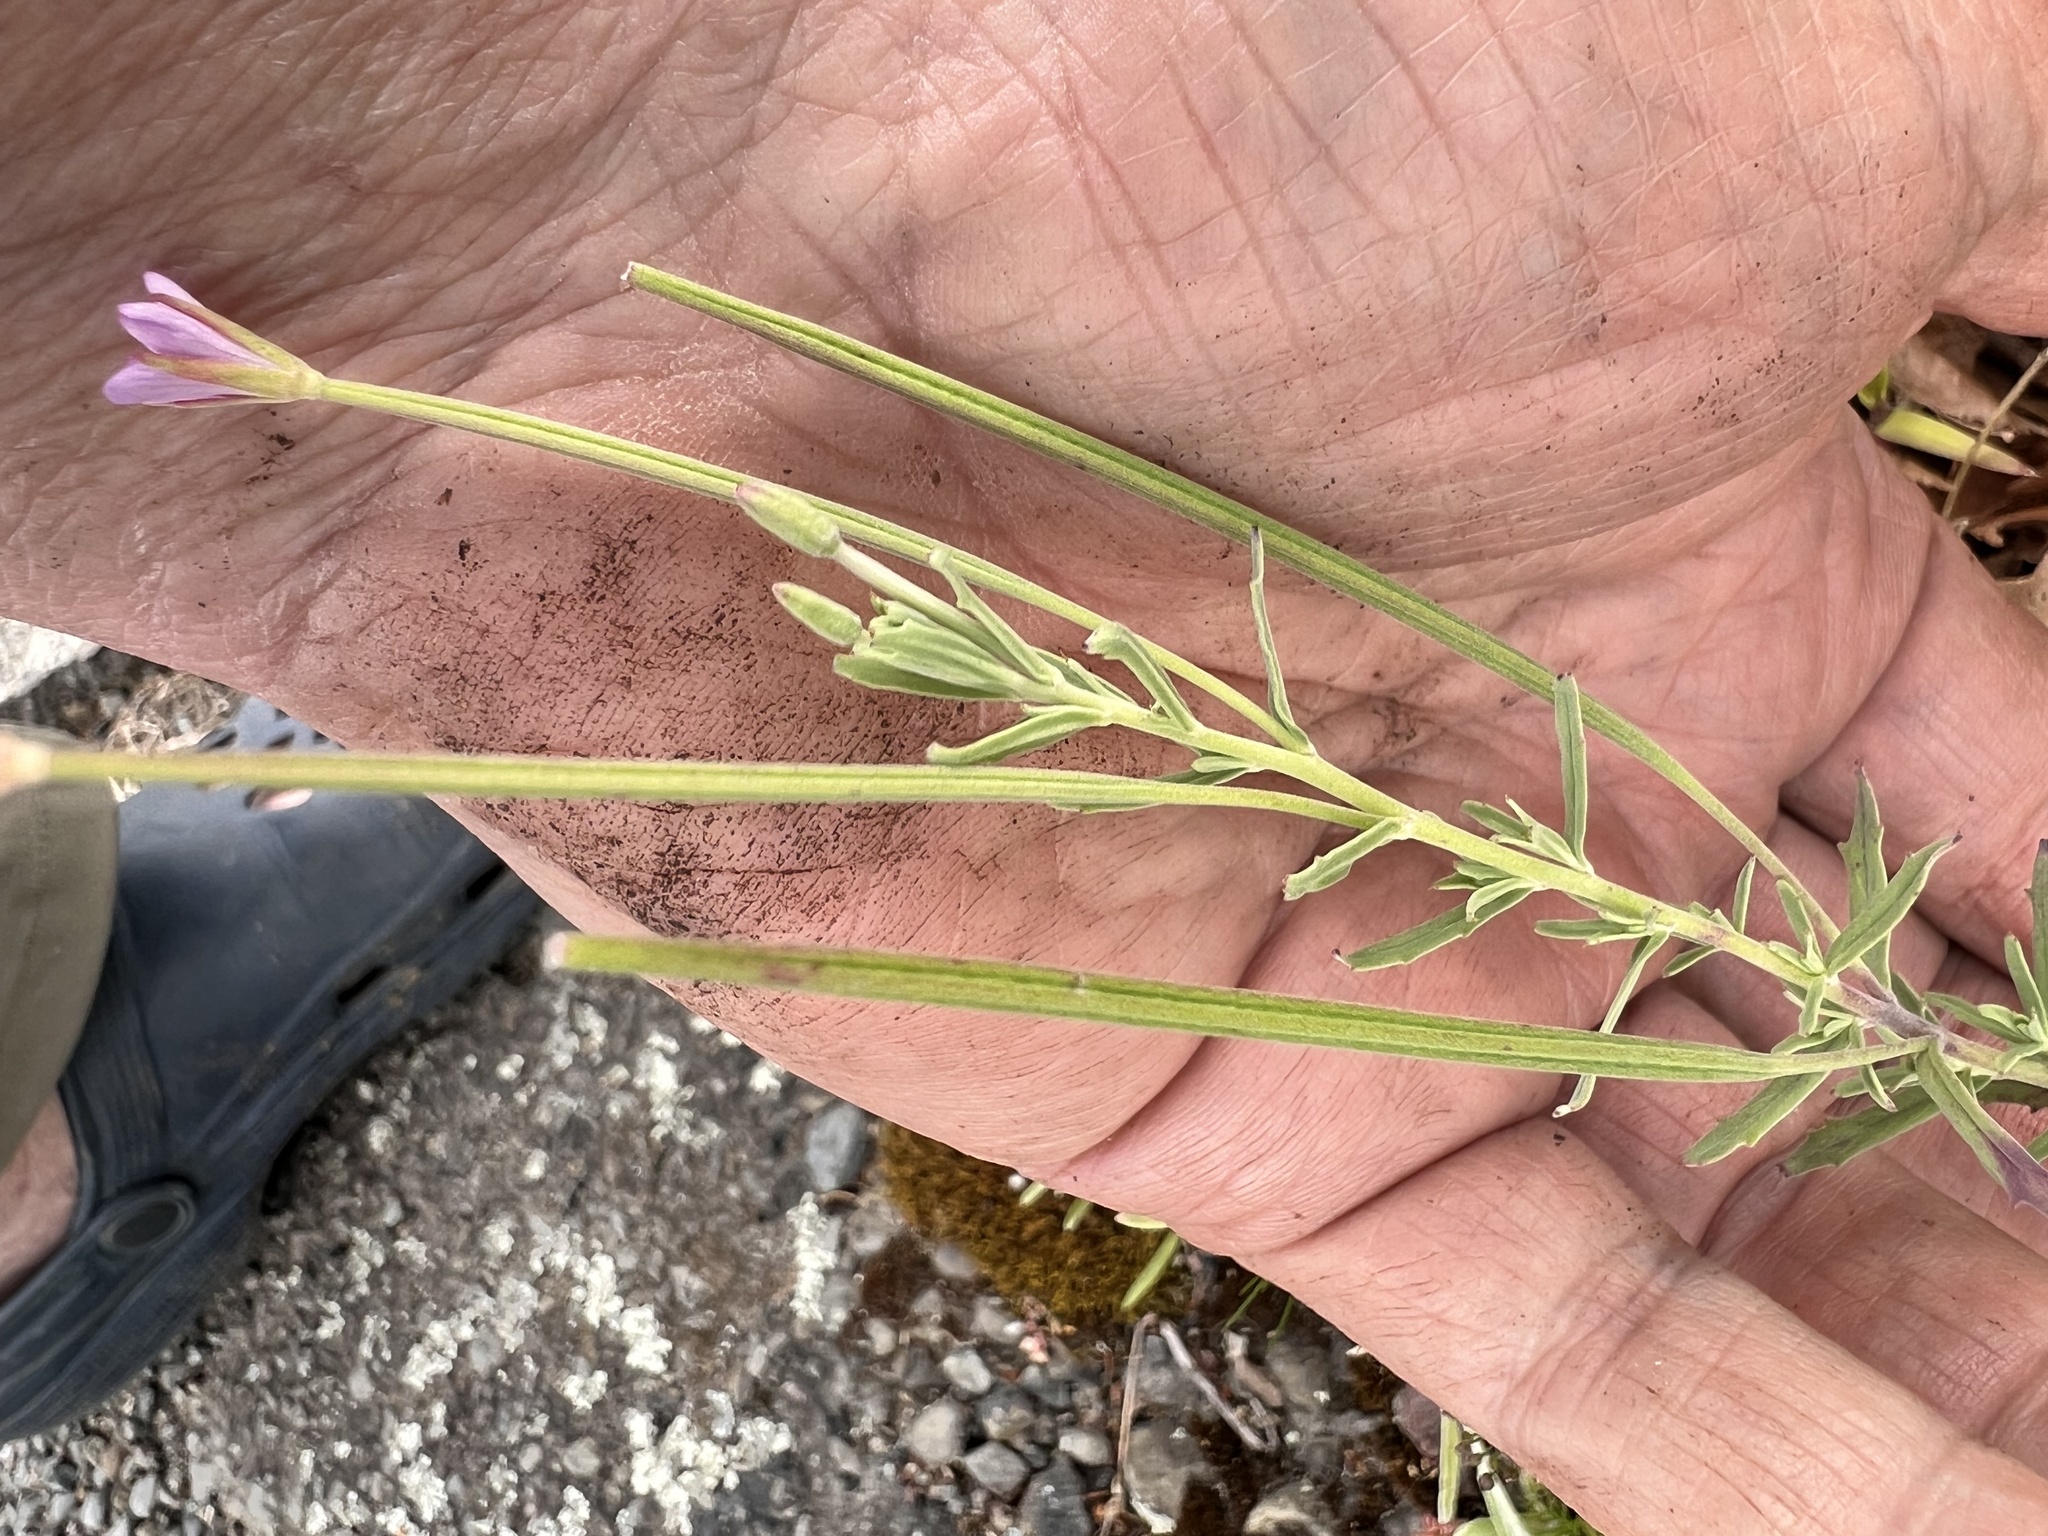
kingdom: Plantae
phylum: Tracheophyta
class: Magnoliopsida
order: Myrtales
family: Onagraceae
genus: Epilobium
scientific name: Epilobium billardierianum
